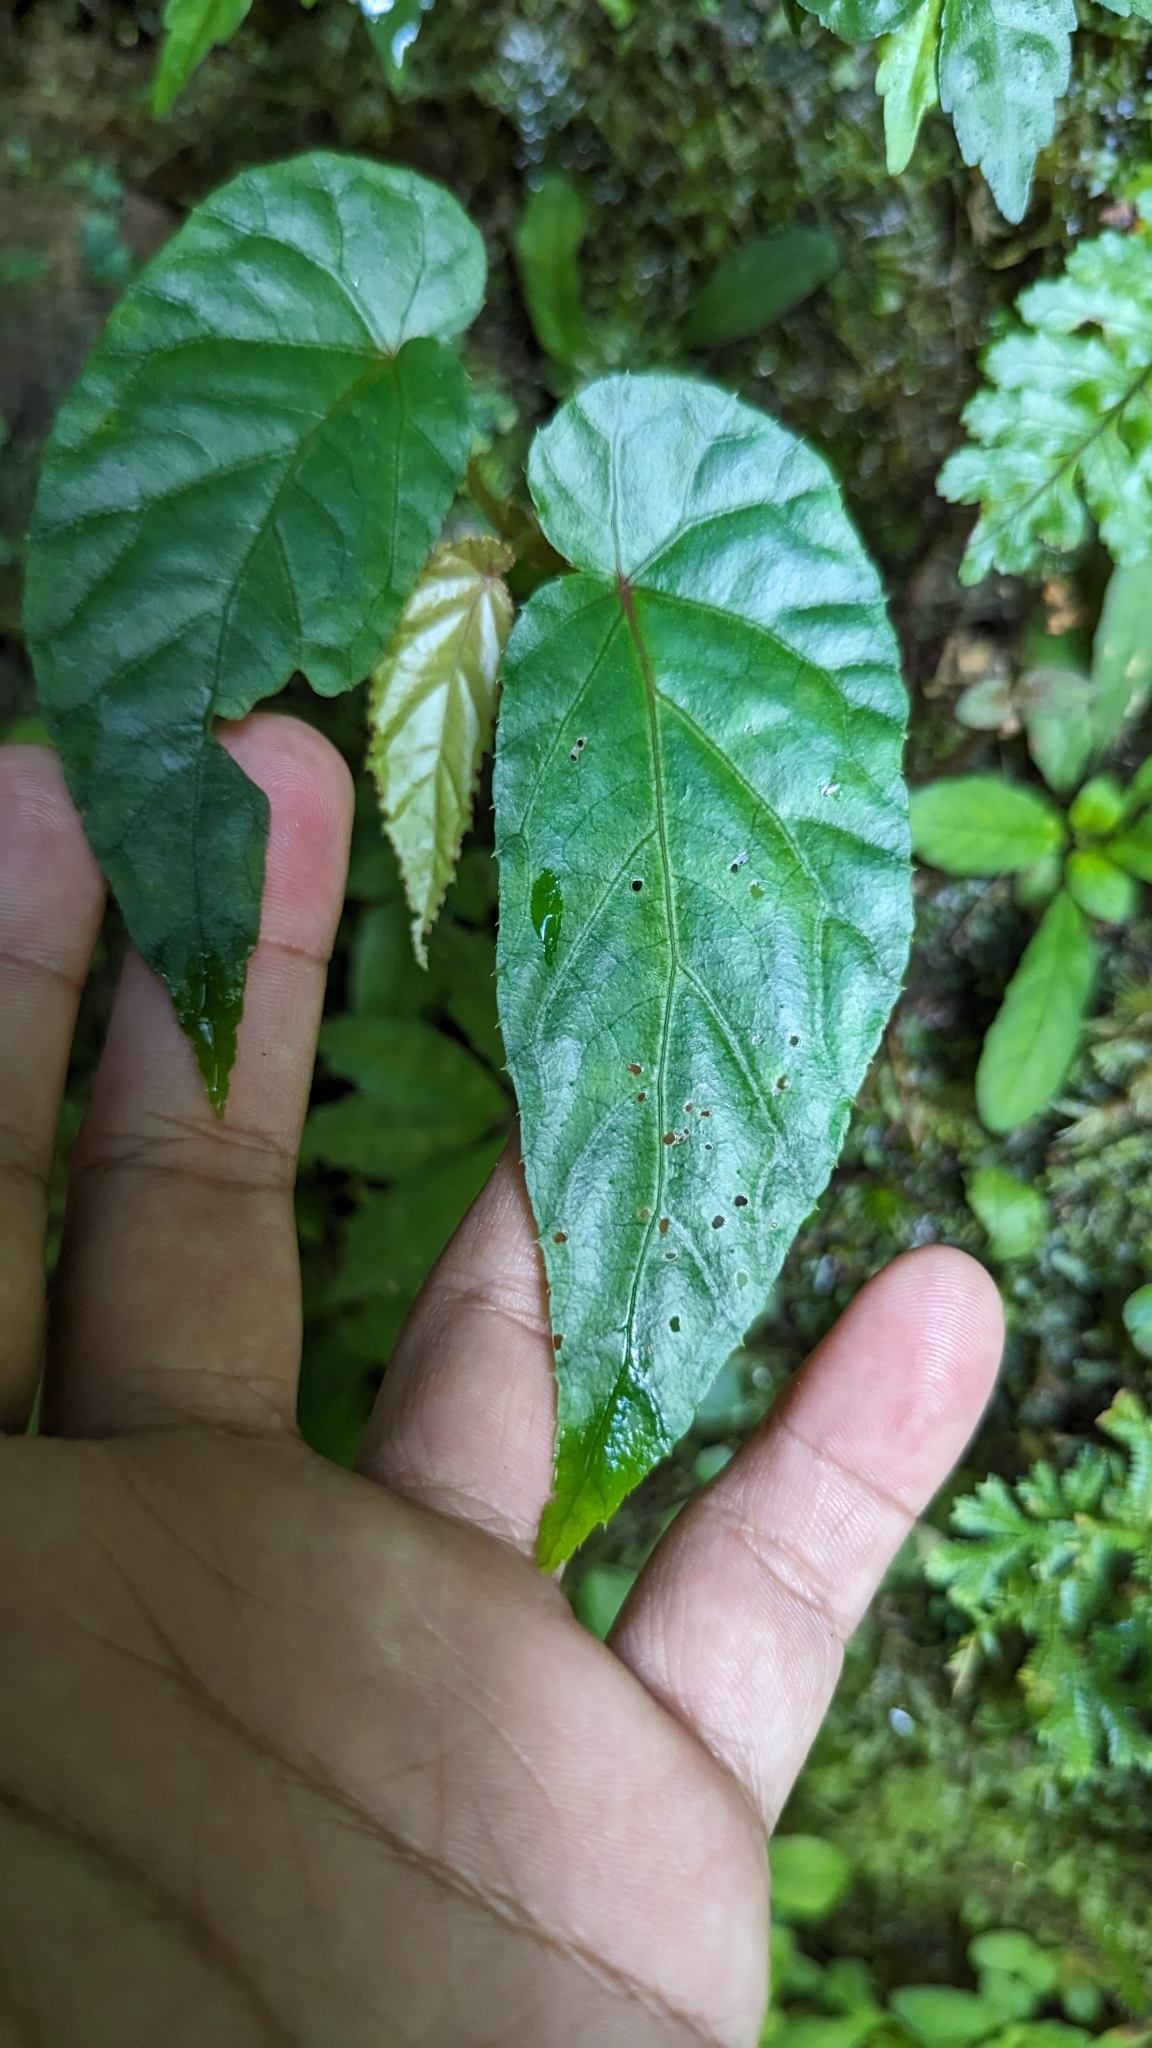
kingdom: Plantae
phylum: Tracheophyta
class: Magnoliopsida
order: Cucurbitales
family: Begoniaceae
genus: Begonia
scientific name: Begonia longifolia
